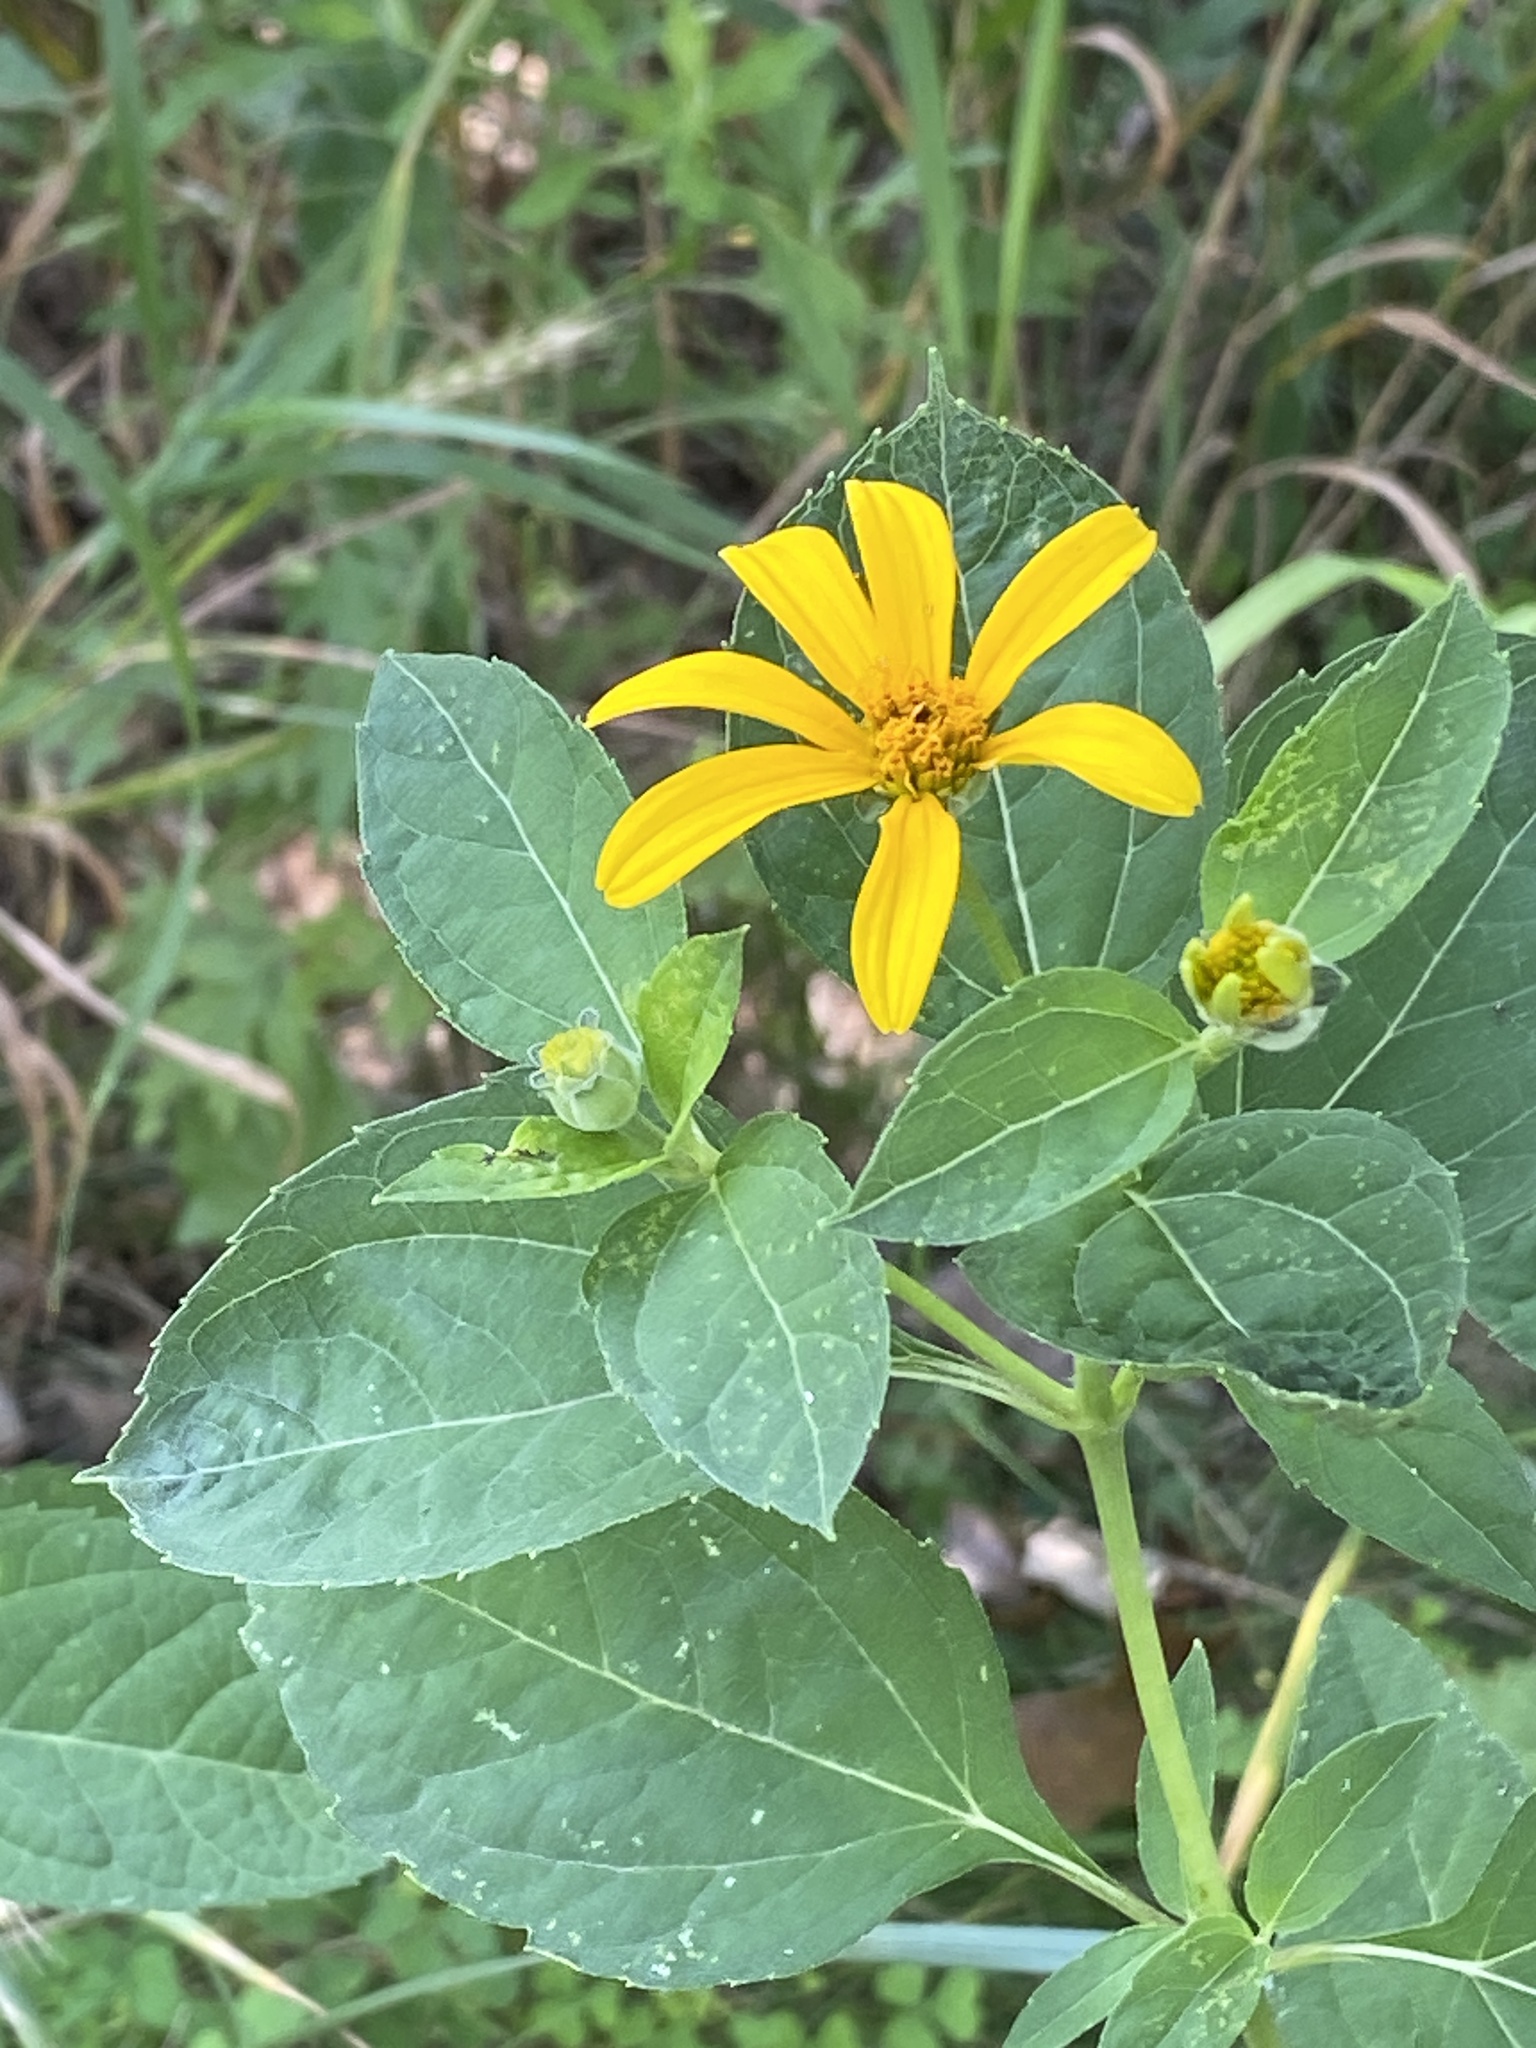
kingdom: Plantae
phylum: Tracheophyta
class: Magnoliopsida
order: Asterales
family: Asteraceae
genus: Heliopsis
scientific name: Heliopsis helianthoides
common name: False sunflower
